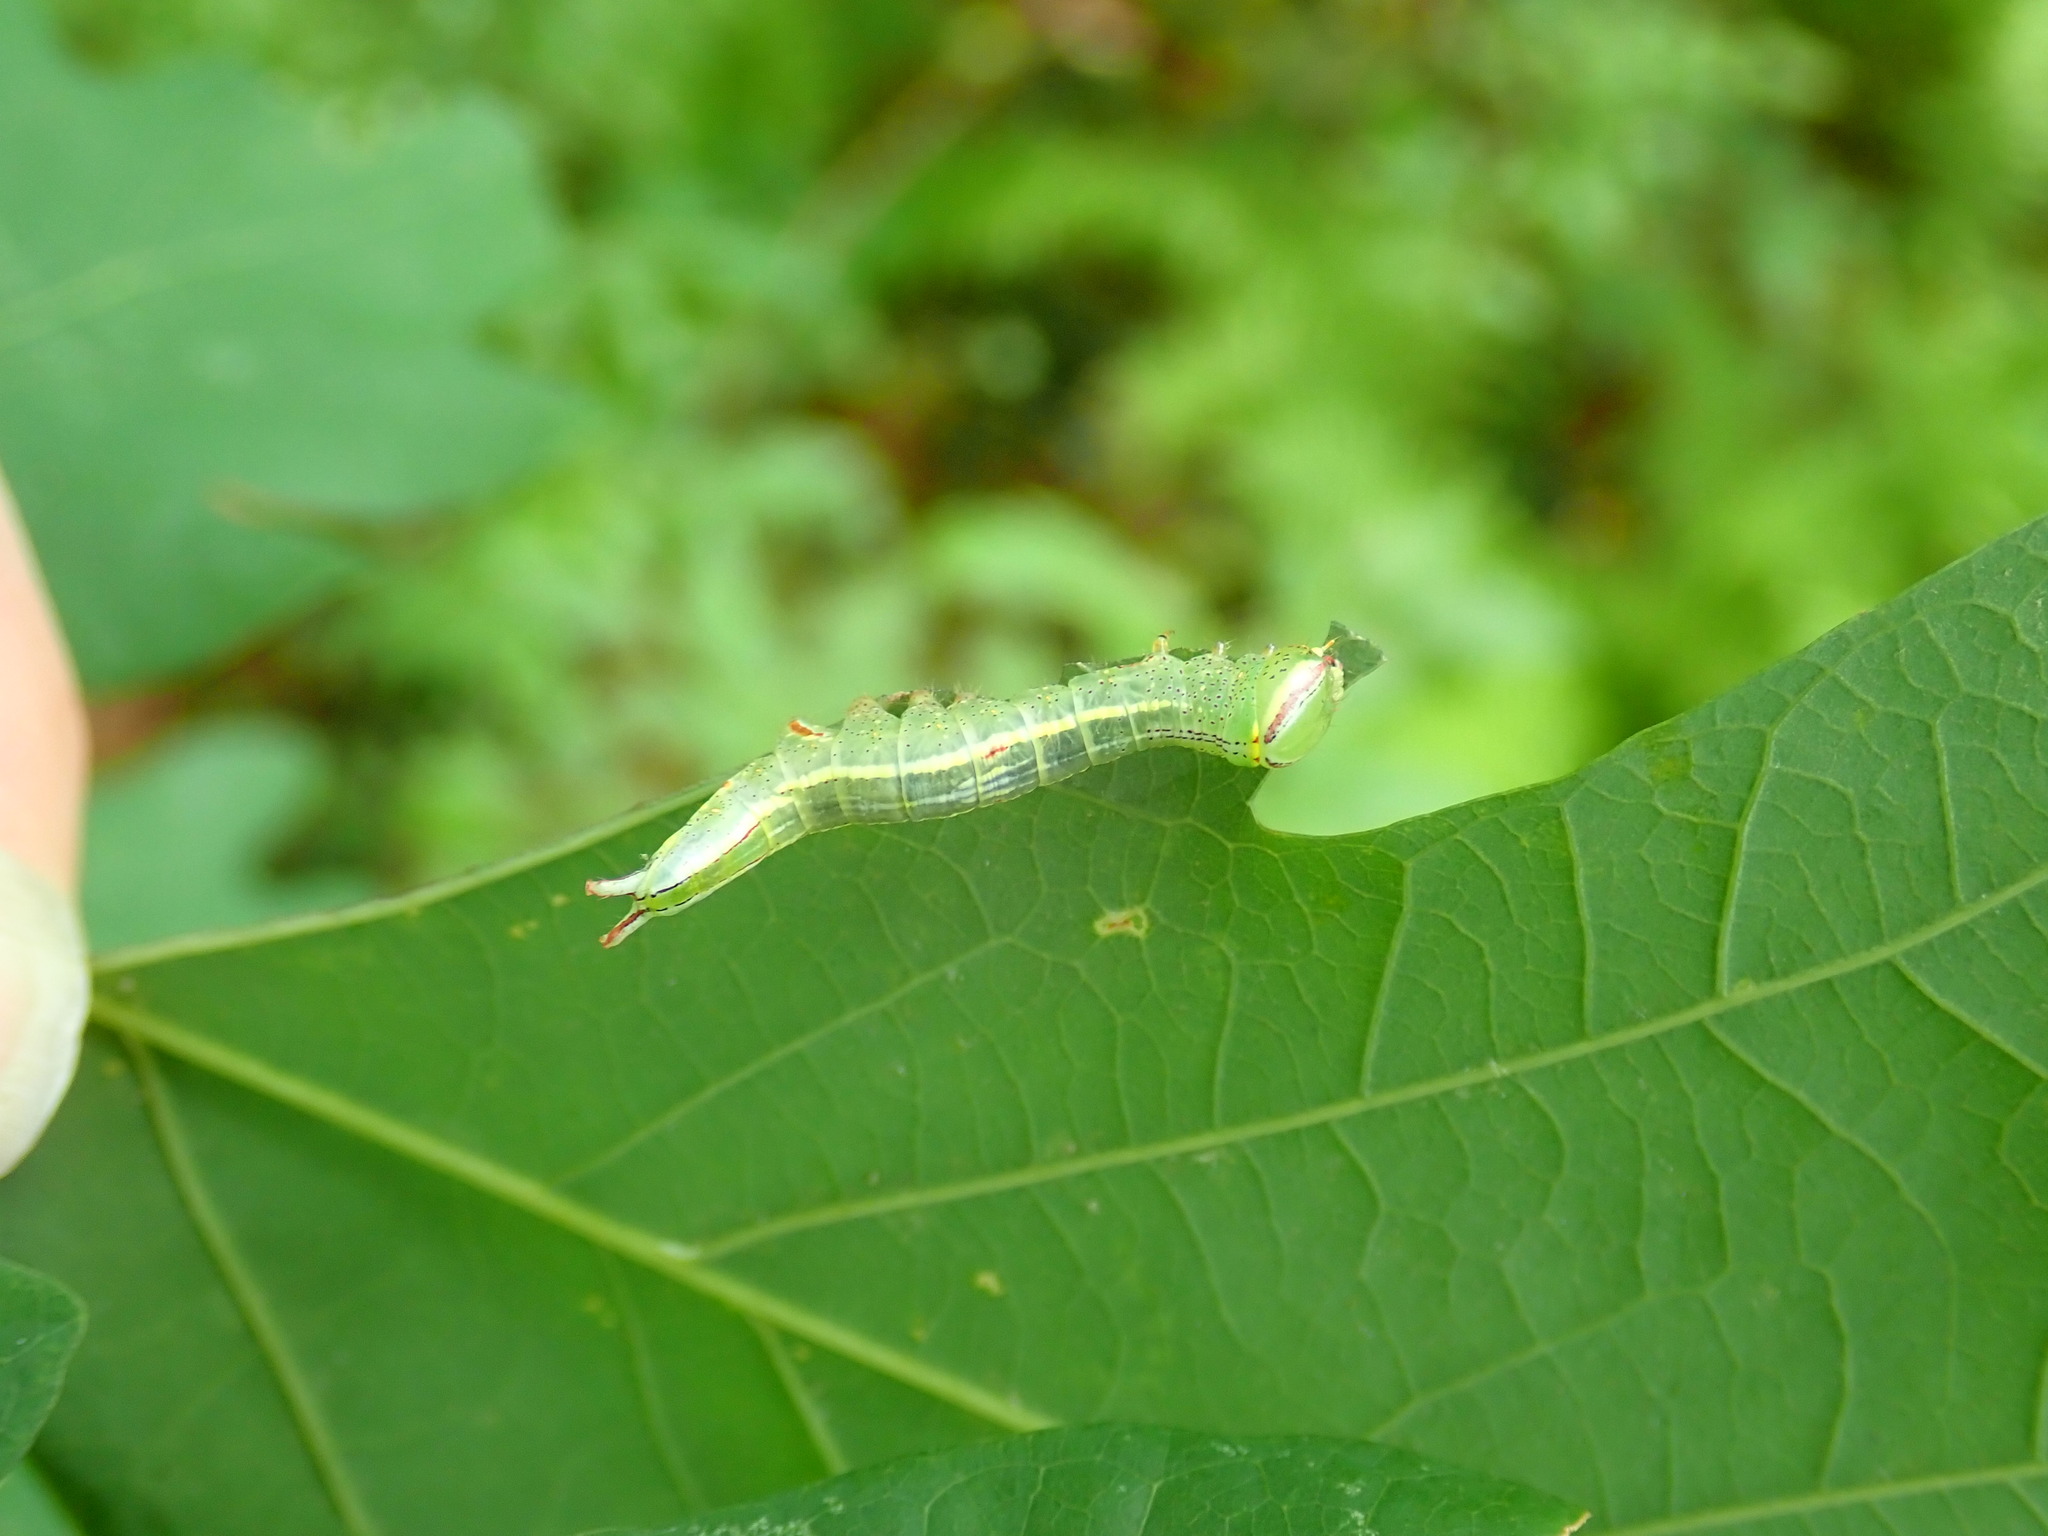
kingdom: Animalia
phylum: Arthropoda
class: Insecta
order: Lepidoptera
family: Notodontidae
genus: Disphragis
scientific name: Disphragis Cecrita guttivitta
